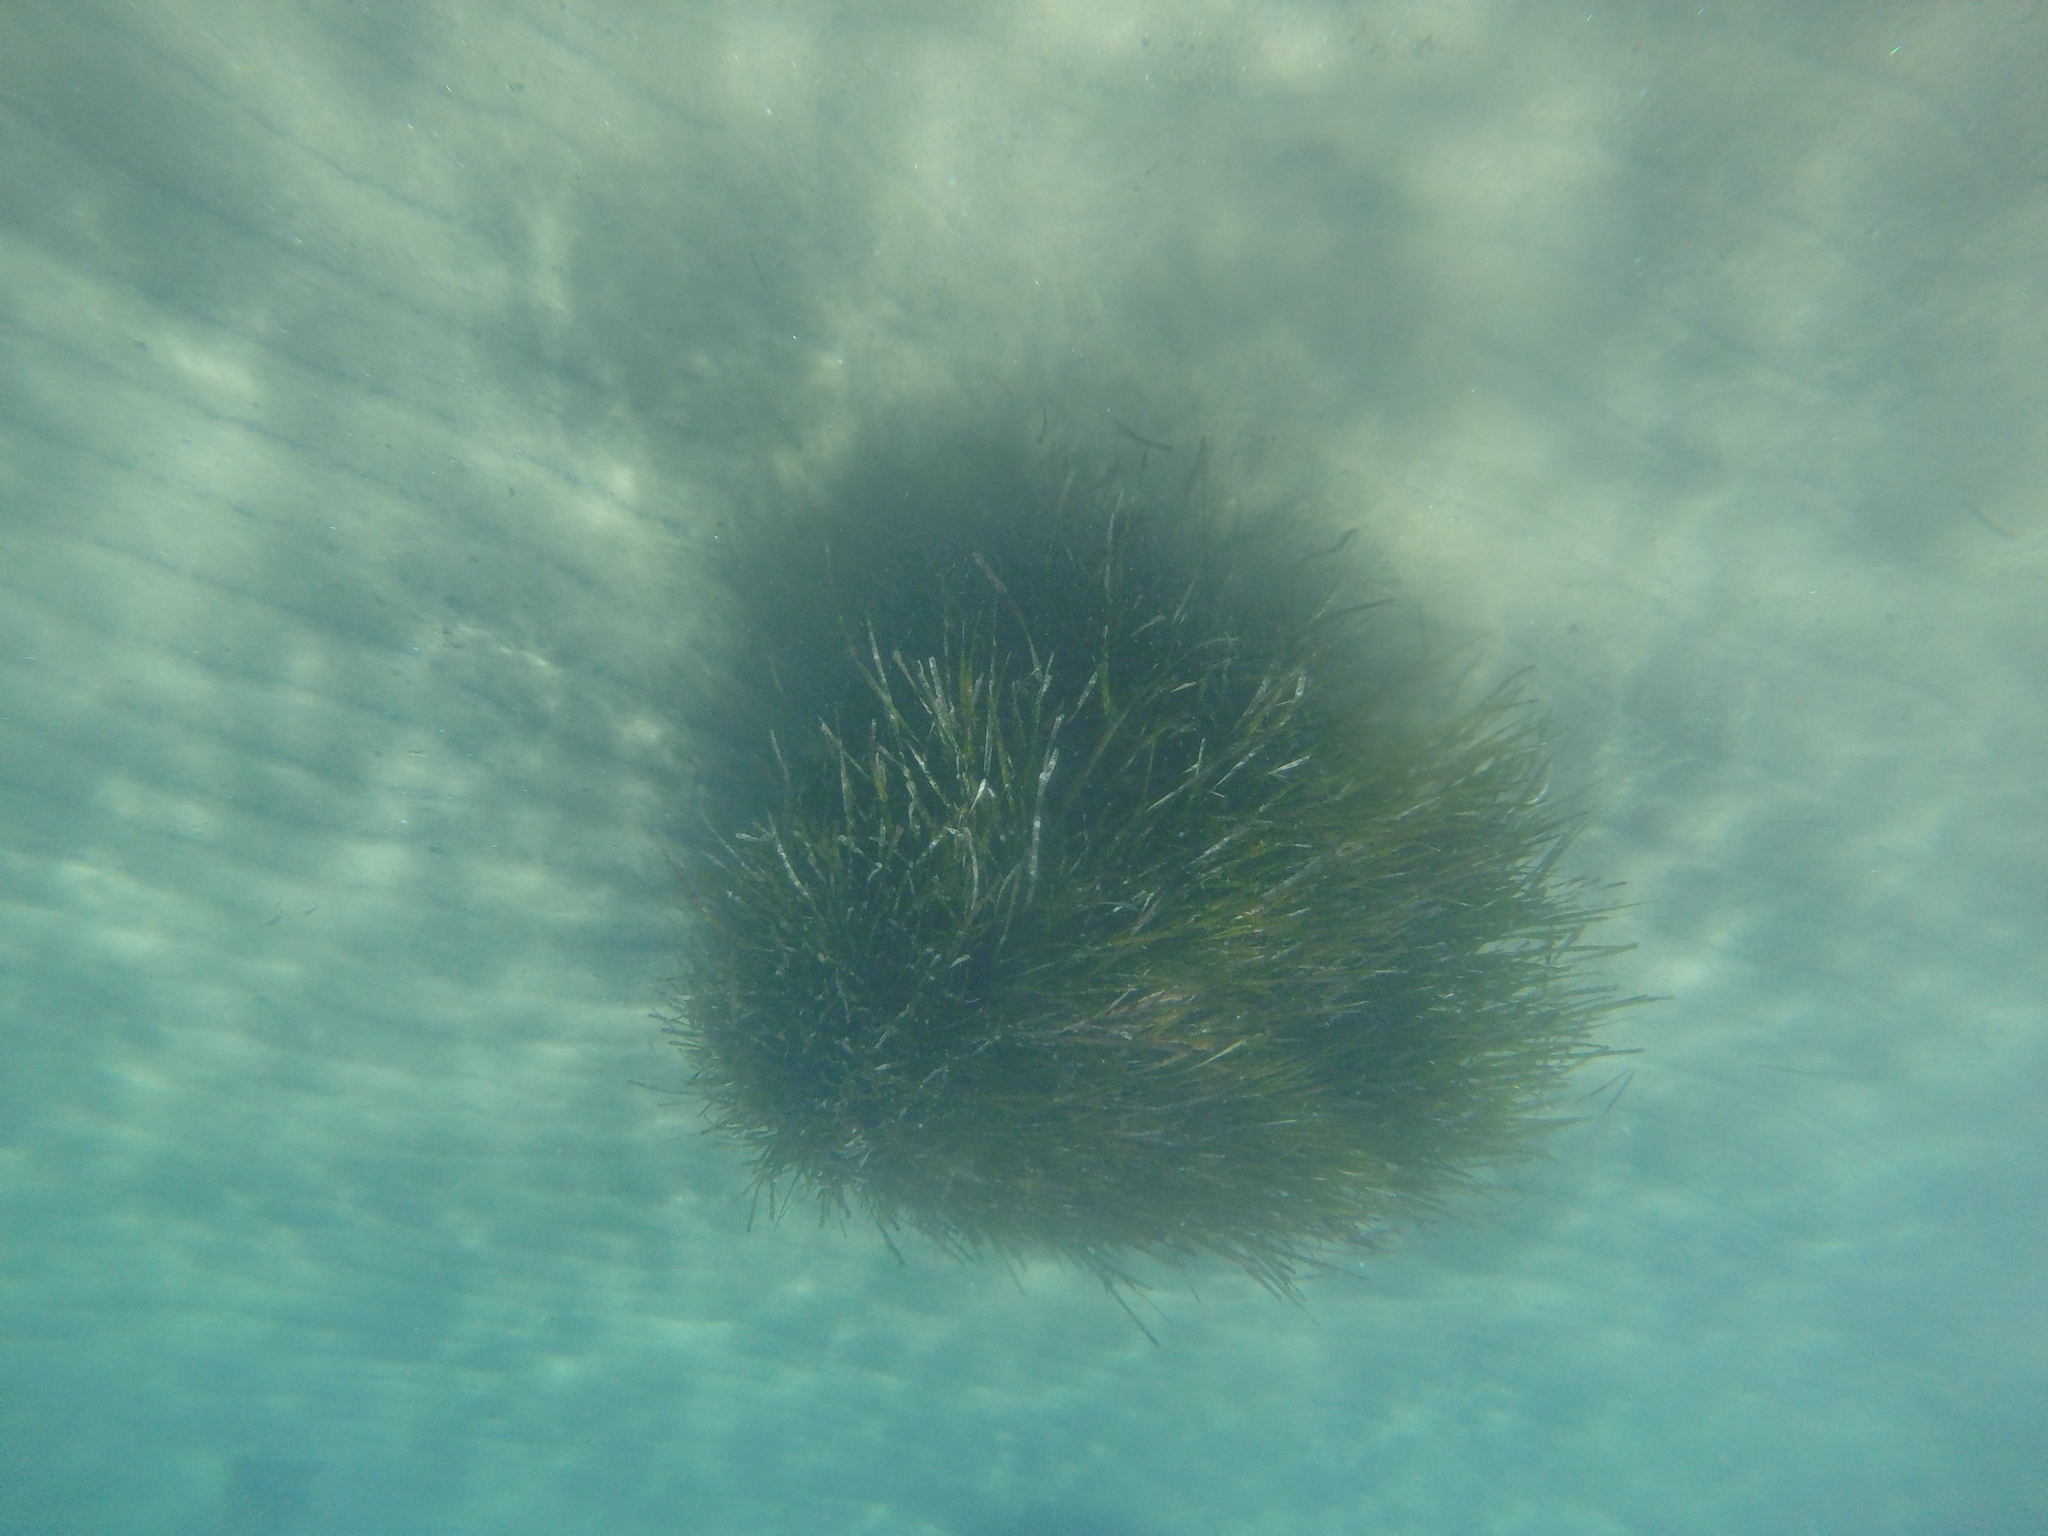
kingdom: Plantae
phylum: Tracheophyta
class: Liliopsida
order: Alismatales
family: Posidoniaceae
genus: Posidonia
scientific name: Posidonia oceanica
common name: Mediterranean tapeweed
